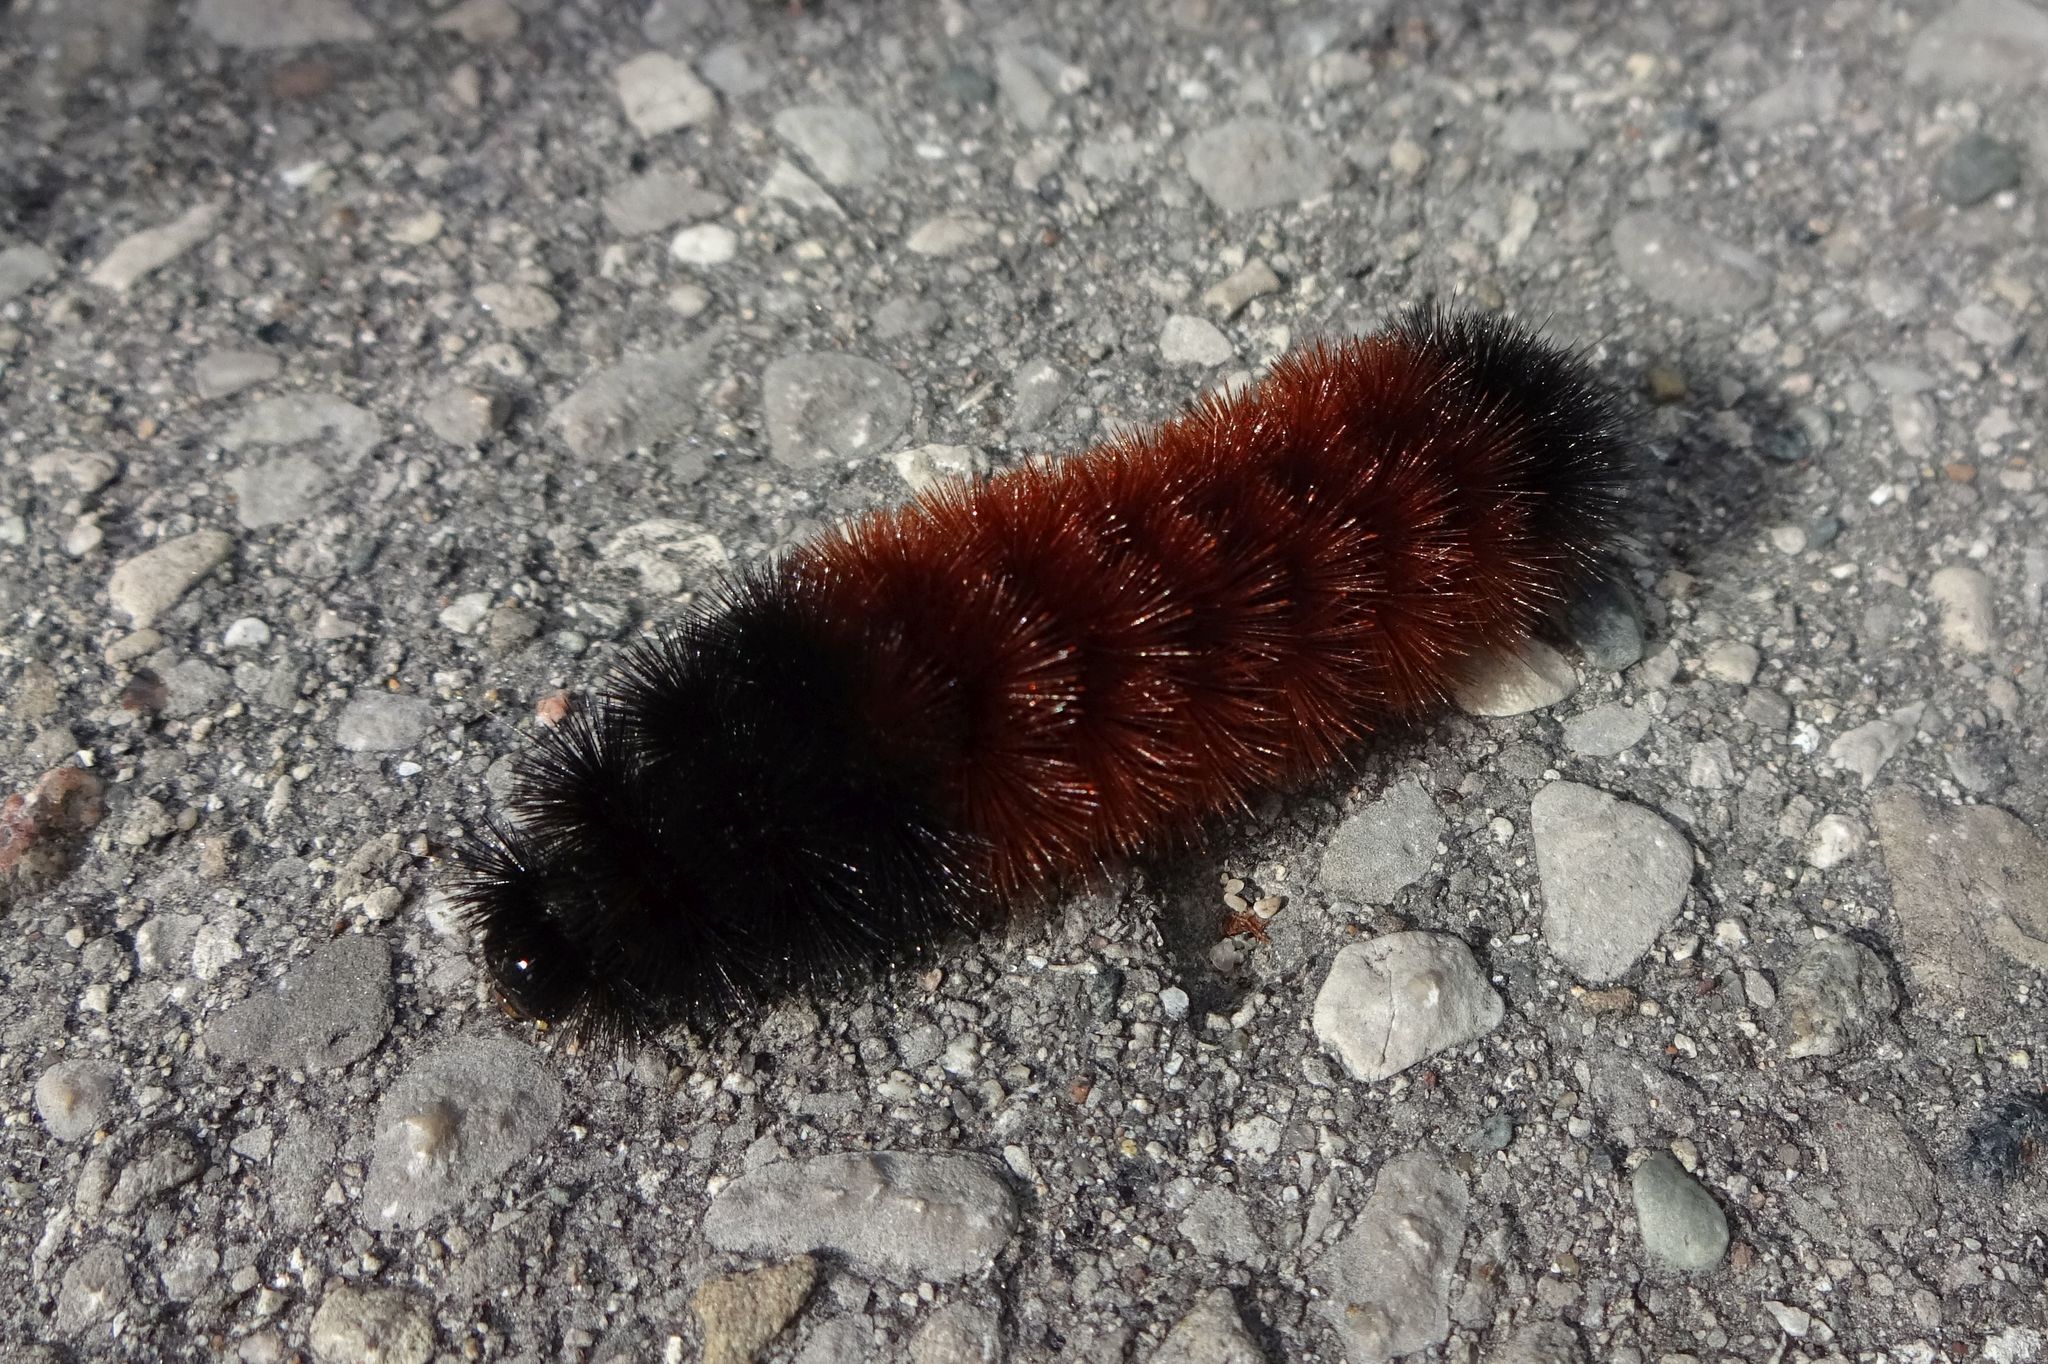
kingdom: Animalia
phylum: Arthropoda
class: Insecta
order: Lepidoptera
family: Erebidae
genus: Pyrrharctia
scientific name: Pyrrharctia isabella
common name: Isabella tiger moth
